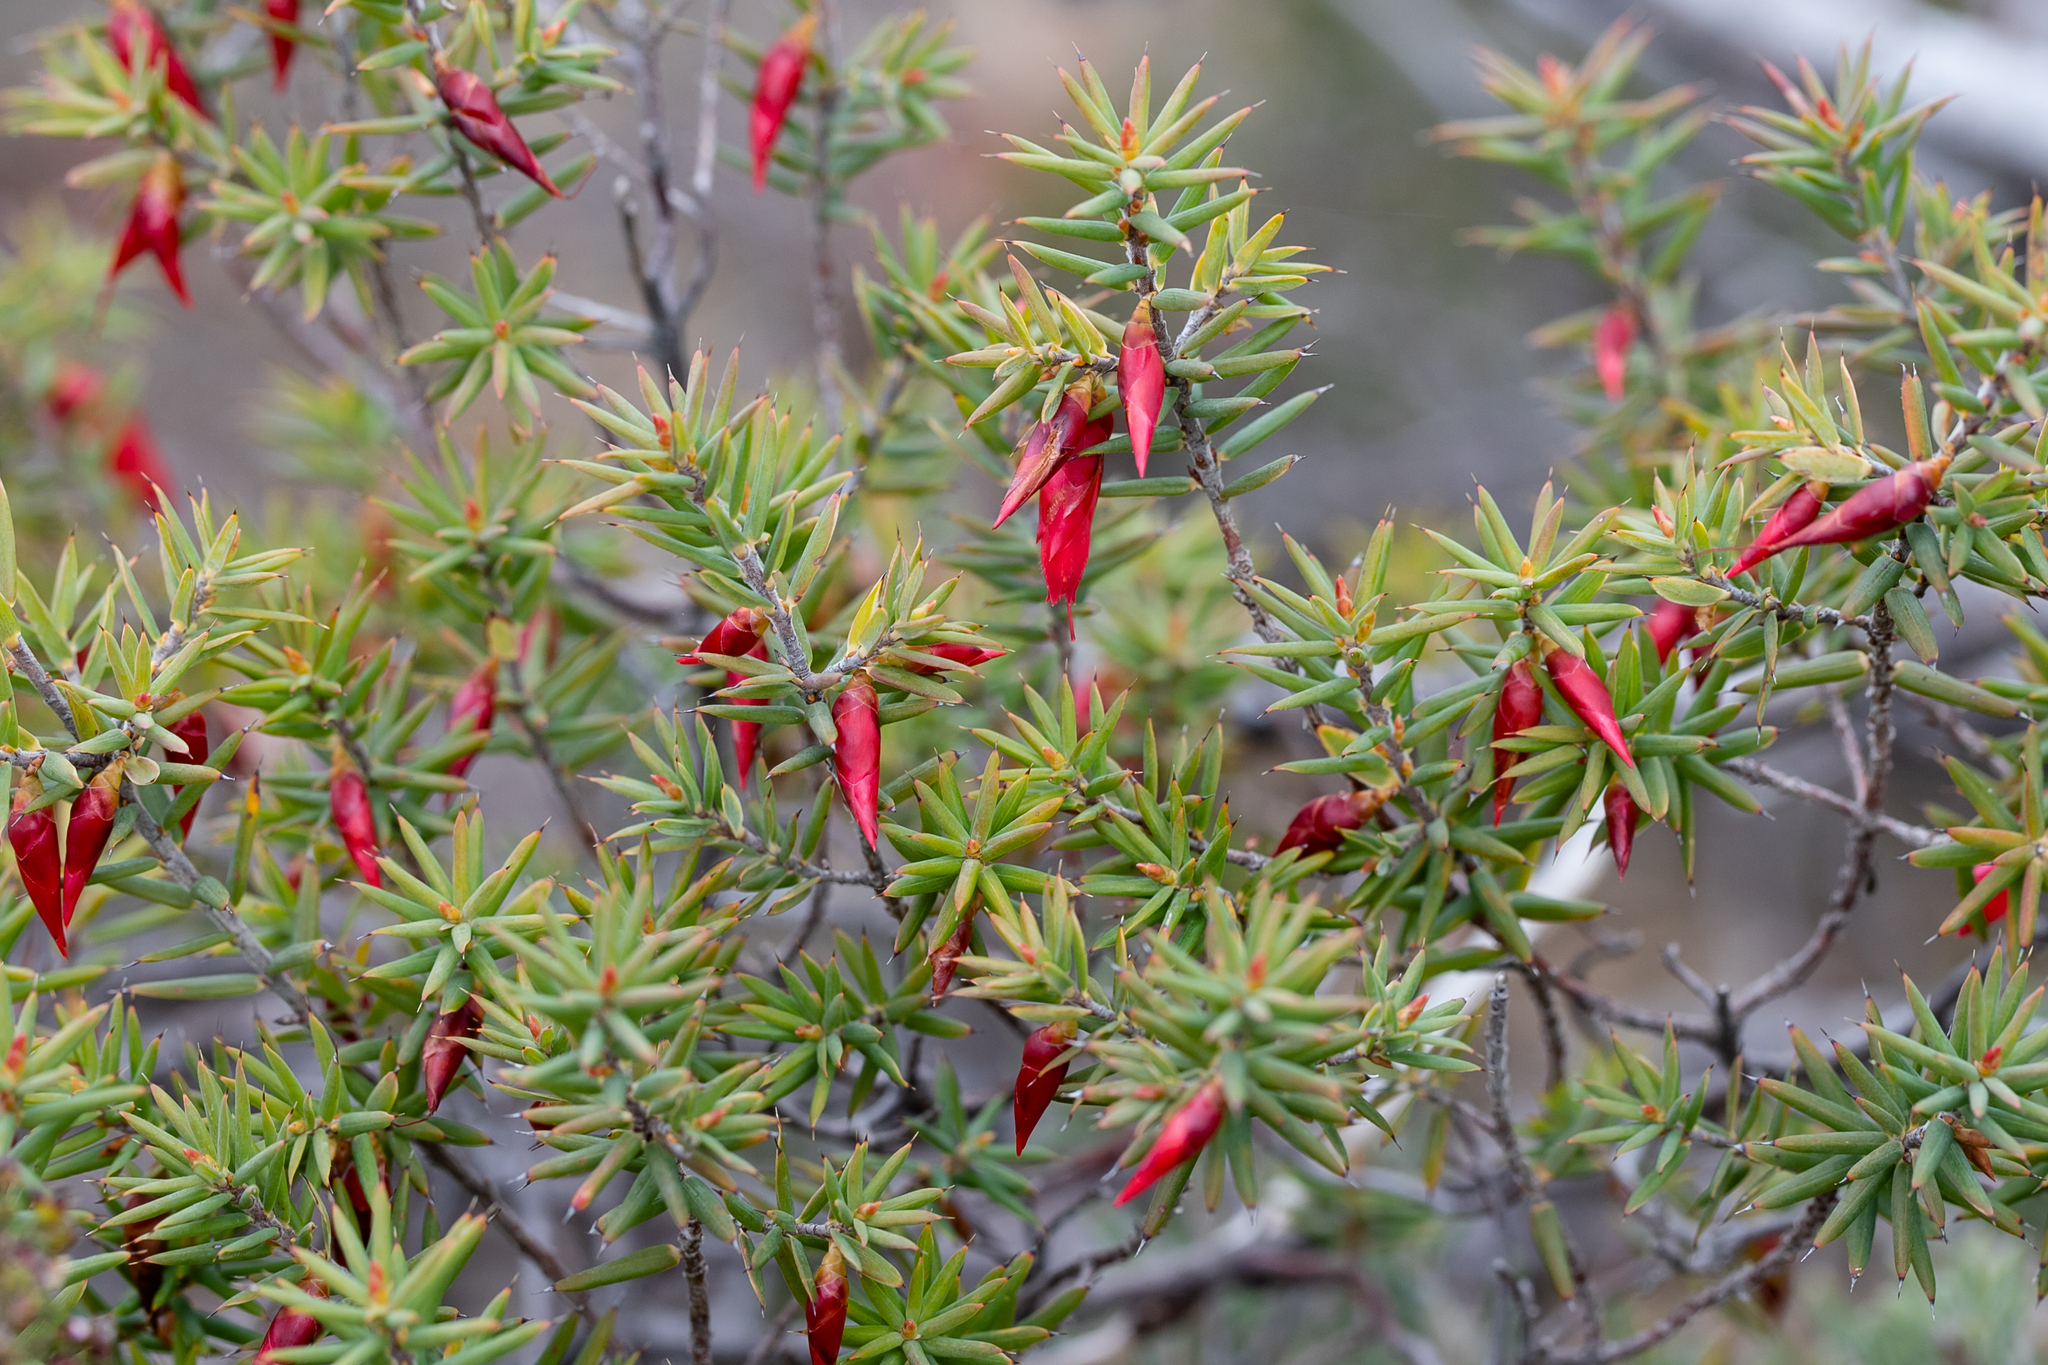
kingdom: Plantae
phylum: Tracheophyta
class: Magnoliopsida
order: Ericales
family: Ericaceae
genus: Stenanthera
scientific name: Stenanthera conostephioides
